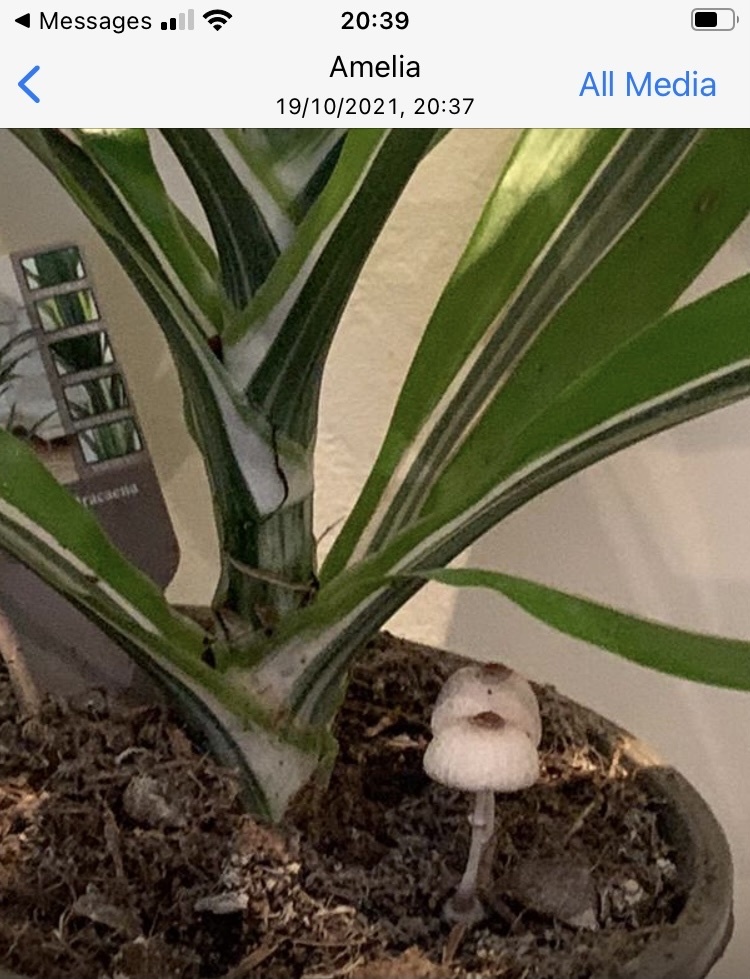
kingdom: Fungi
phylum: Basidiomycota
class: Agaricomycetes
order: Agaricales
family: Agaricaceae
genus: Leucocoprinus
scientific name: Leucocoprinus ianthinus
